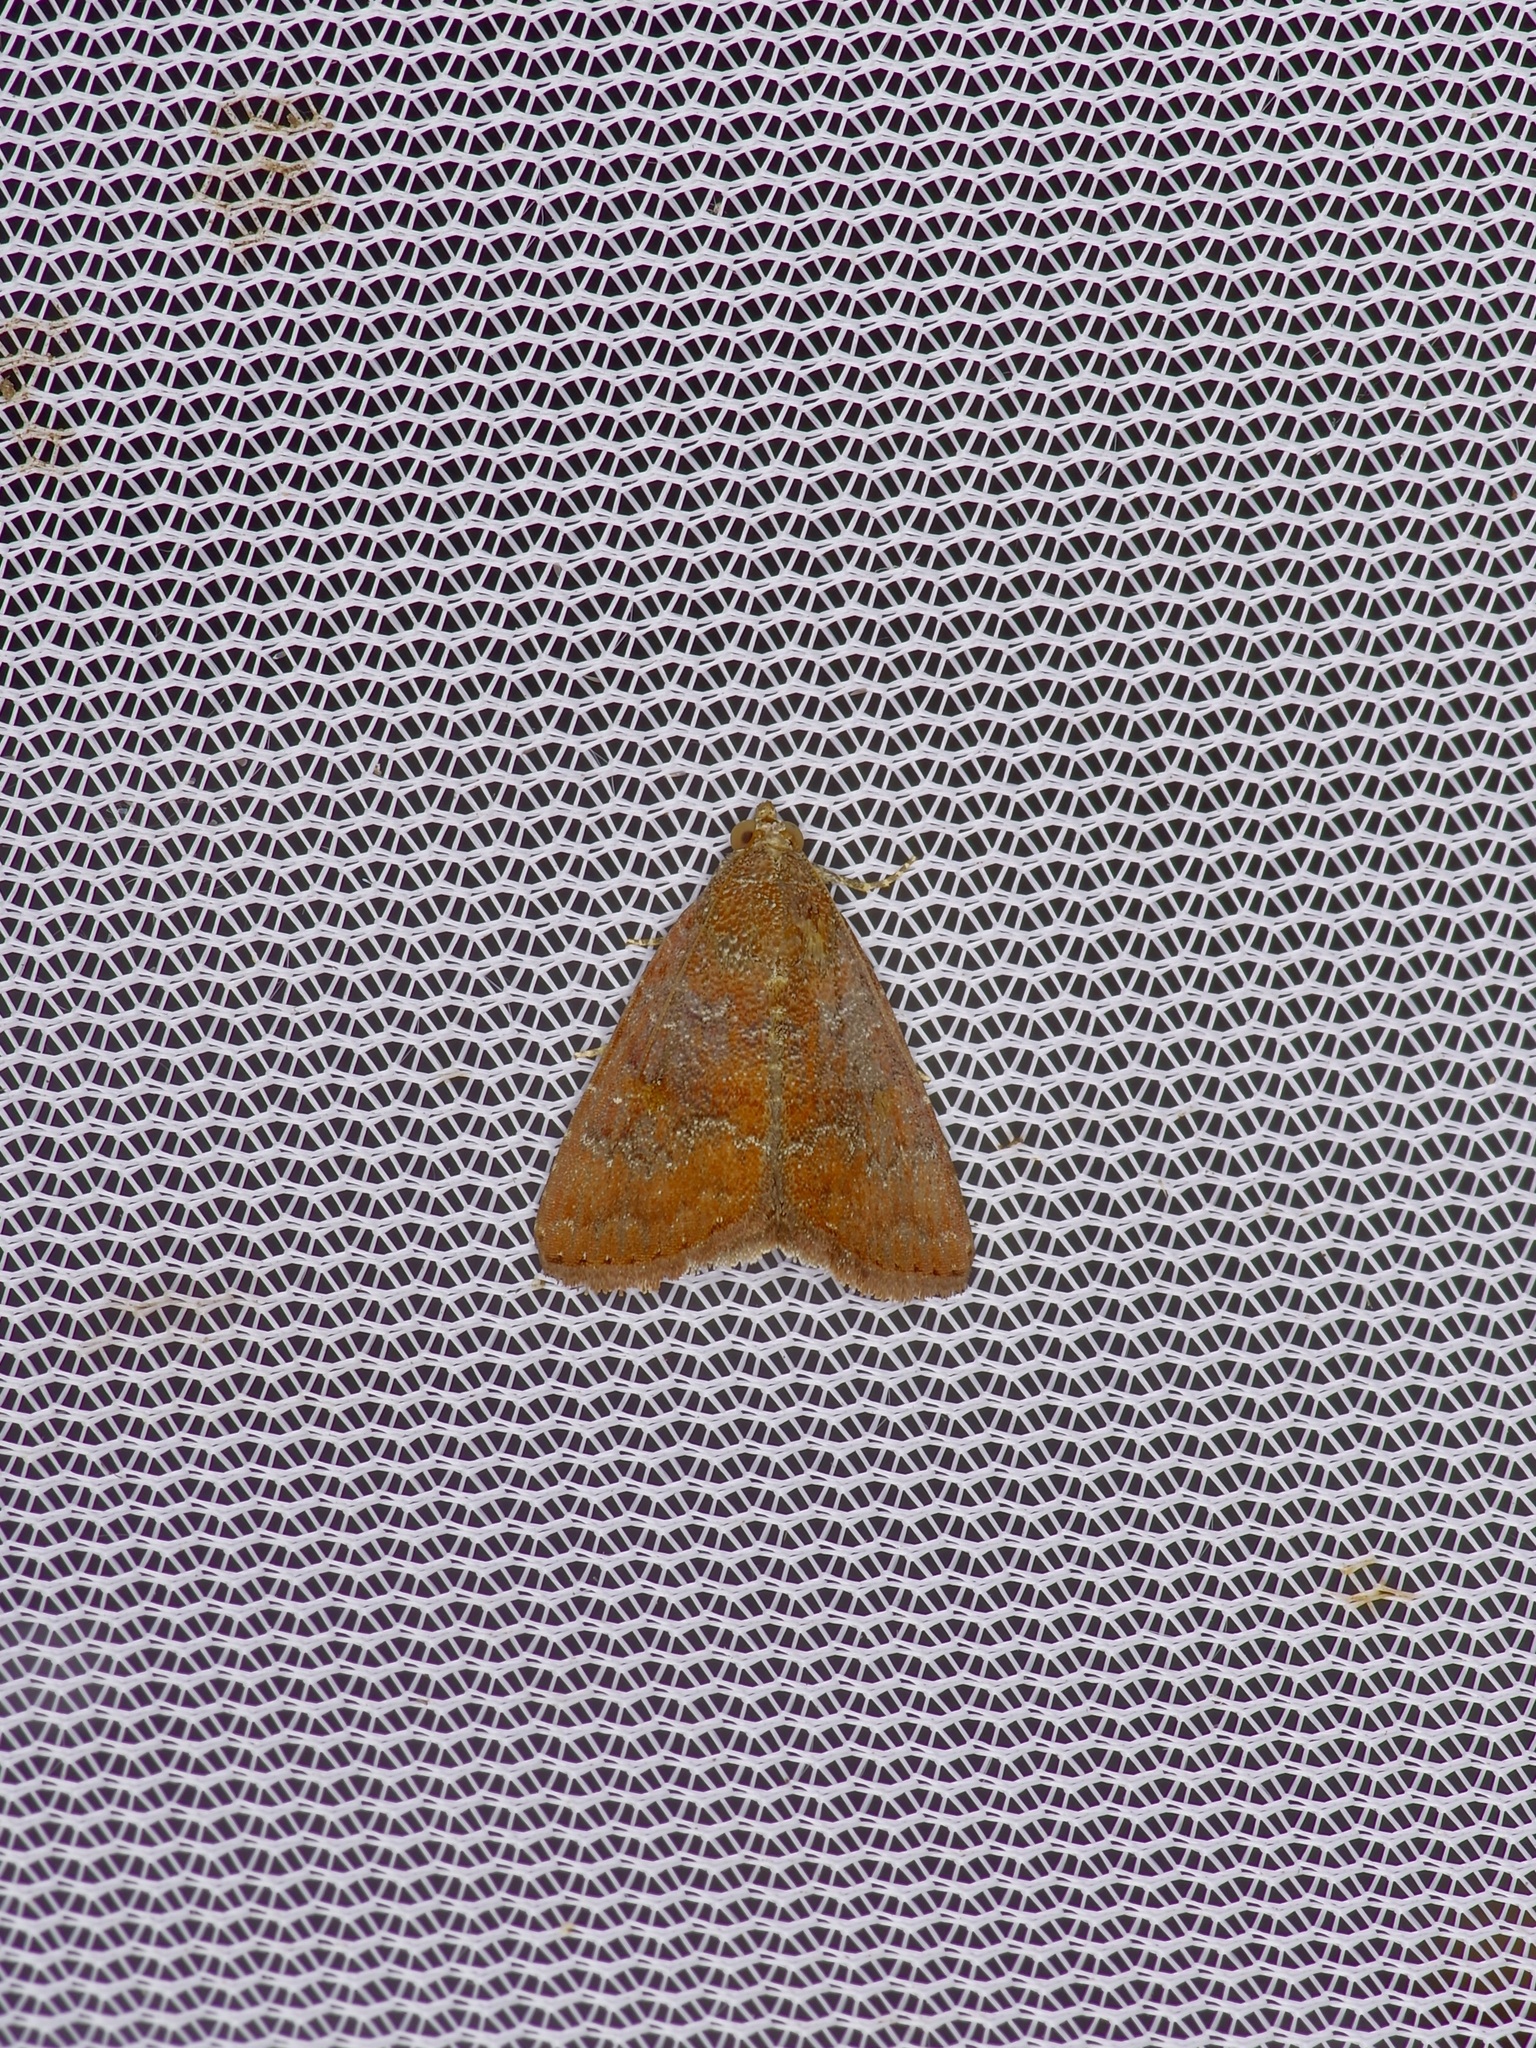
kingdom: Animalia
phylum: Arthropoda
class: Insecta
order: Lepidoptera
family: Noctuidae
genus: Amyna
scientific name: Amyna stricta
